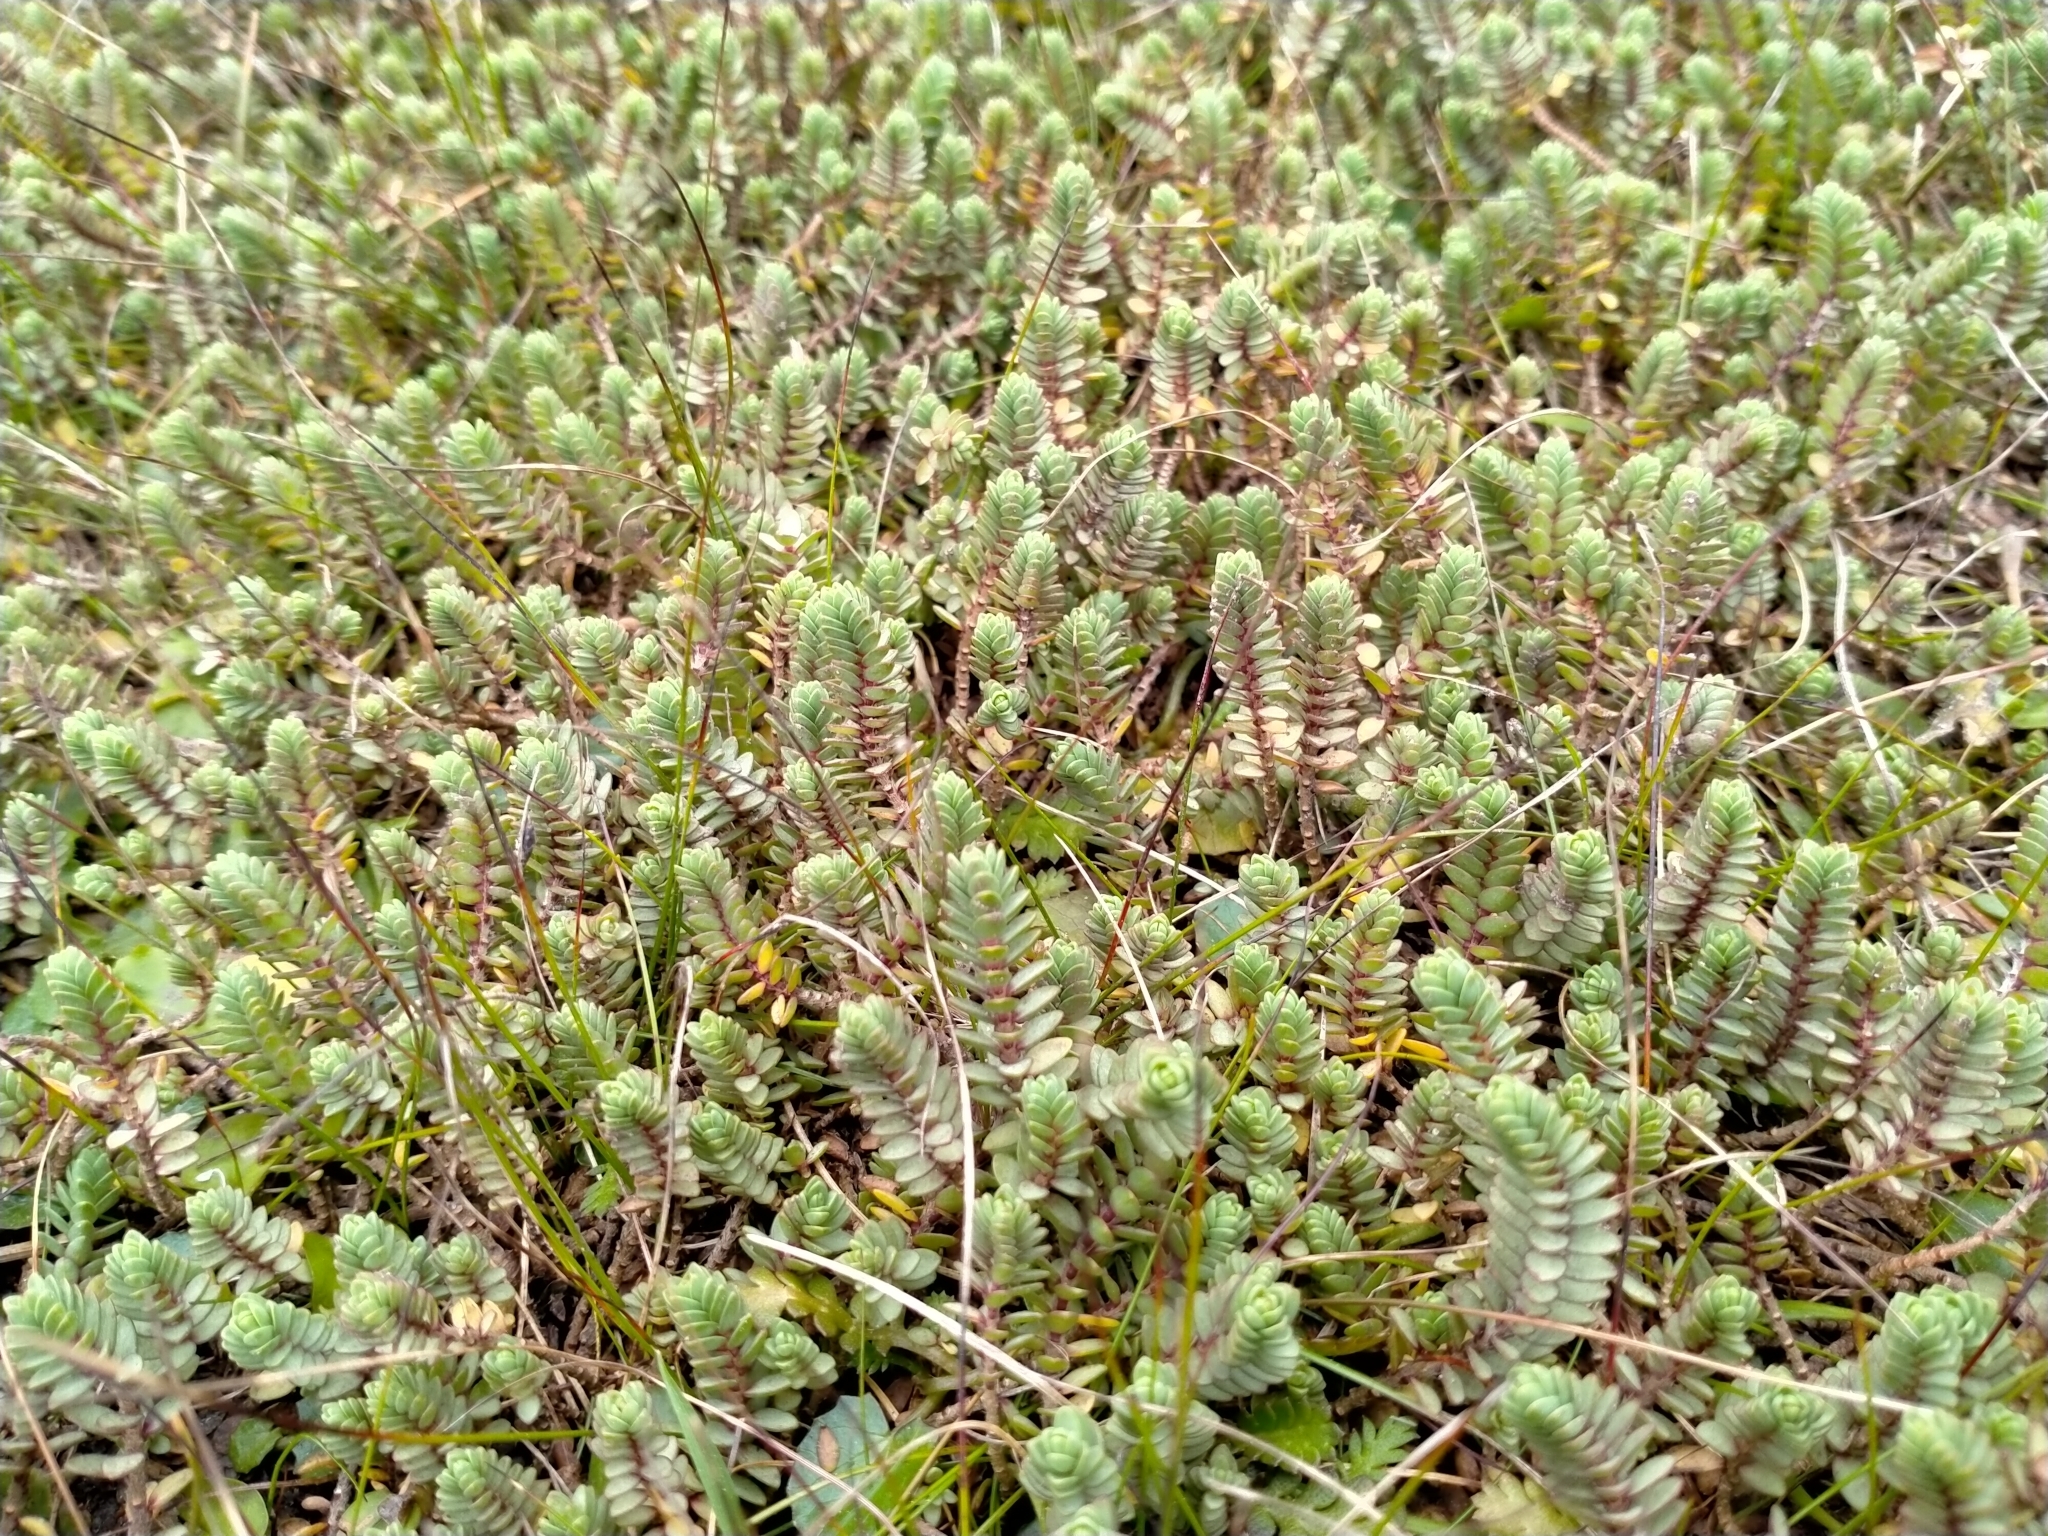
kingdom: Plantae
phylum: Tracheophyta
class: Magnoliopsida
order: Malvales
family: Thymelaeaceae
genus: Pimelea
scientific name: Pimelea carnosa
